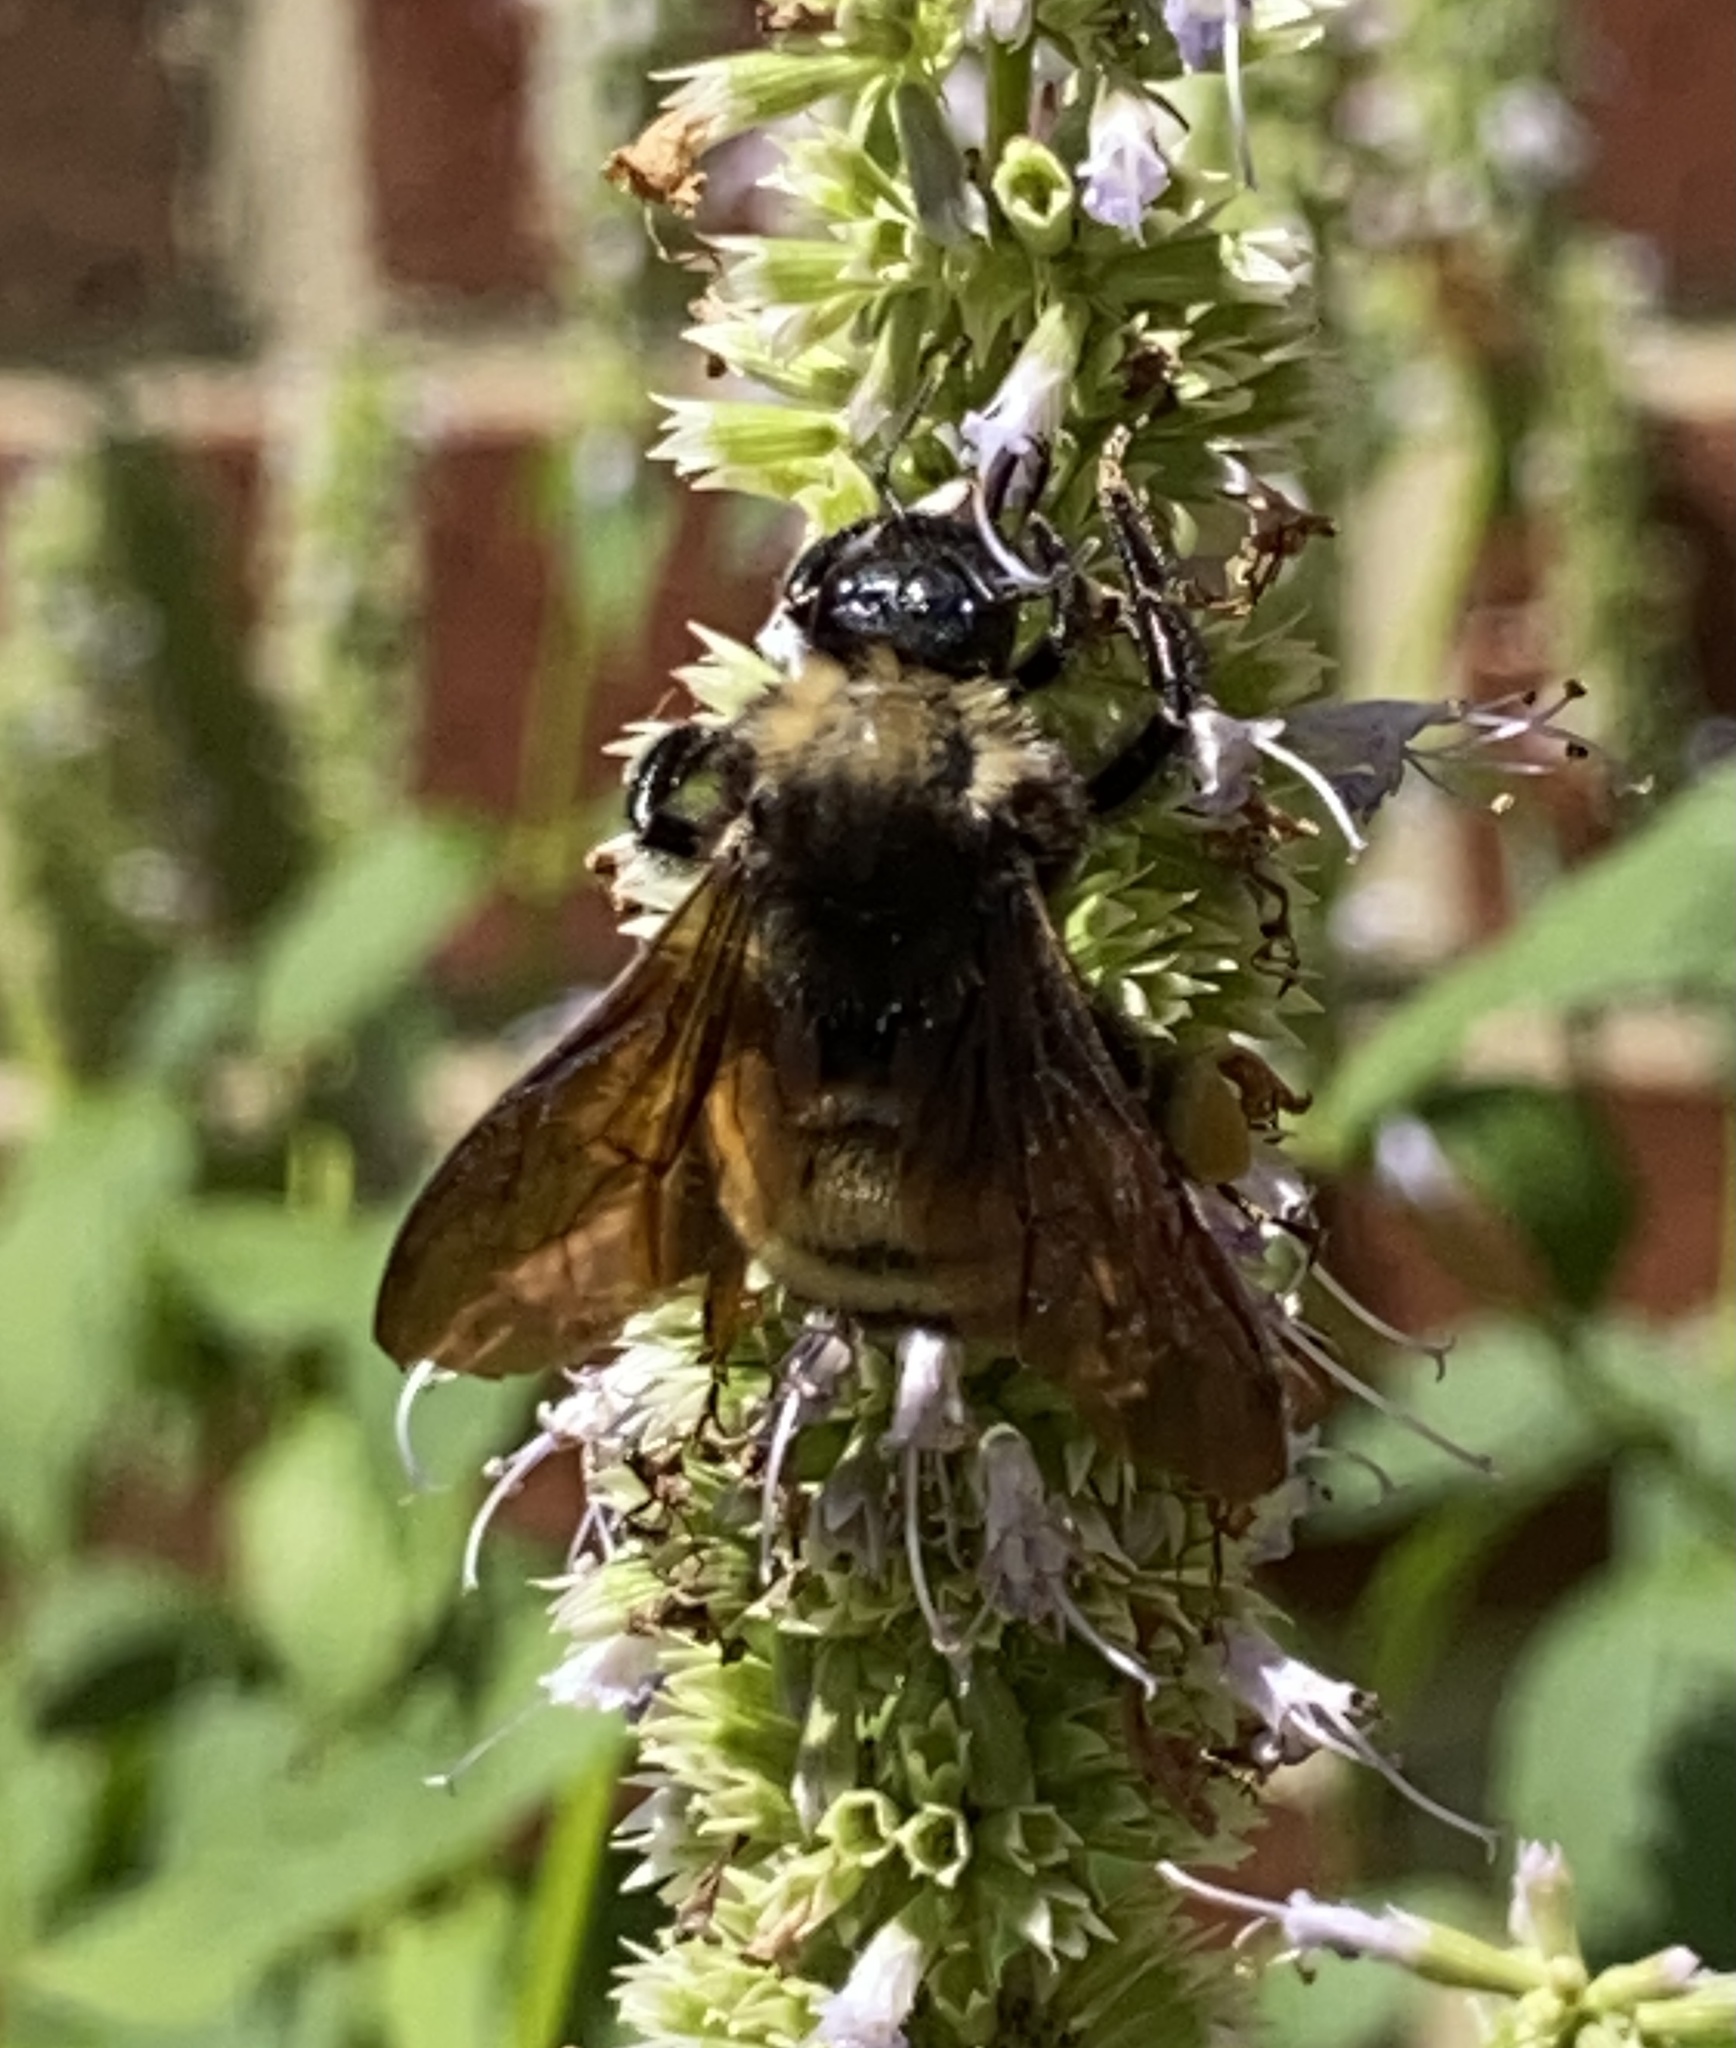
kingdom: Animalia
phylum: Arthropoda
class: Insecta
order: Hymenoptera
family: Apidae
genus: Bombus
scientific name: Bombus pensylvanicus
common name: Bumble bee
